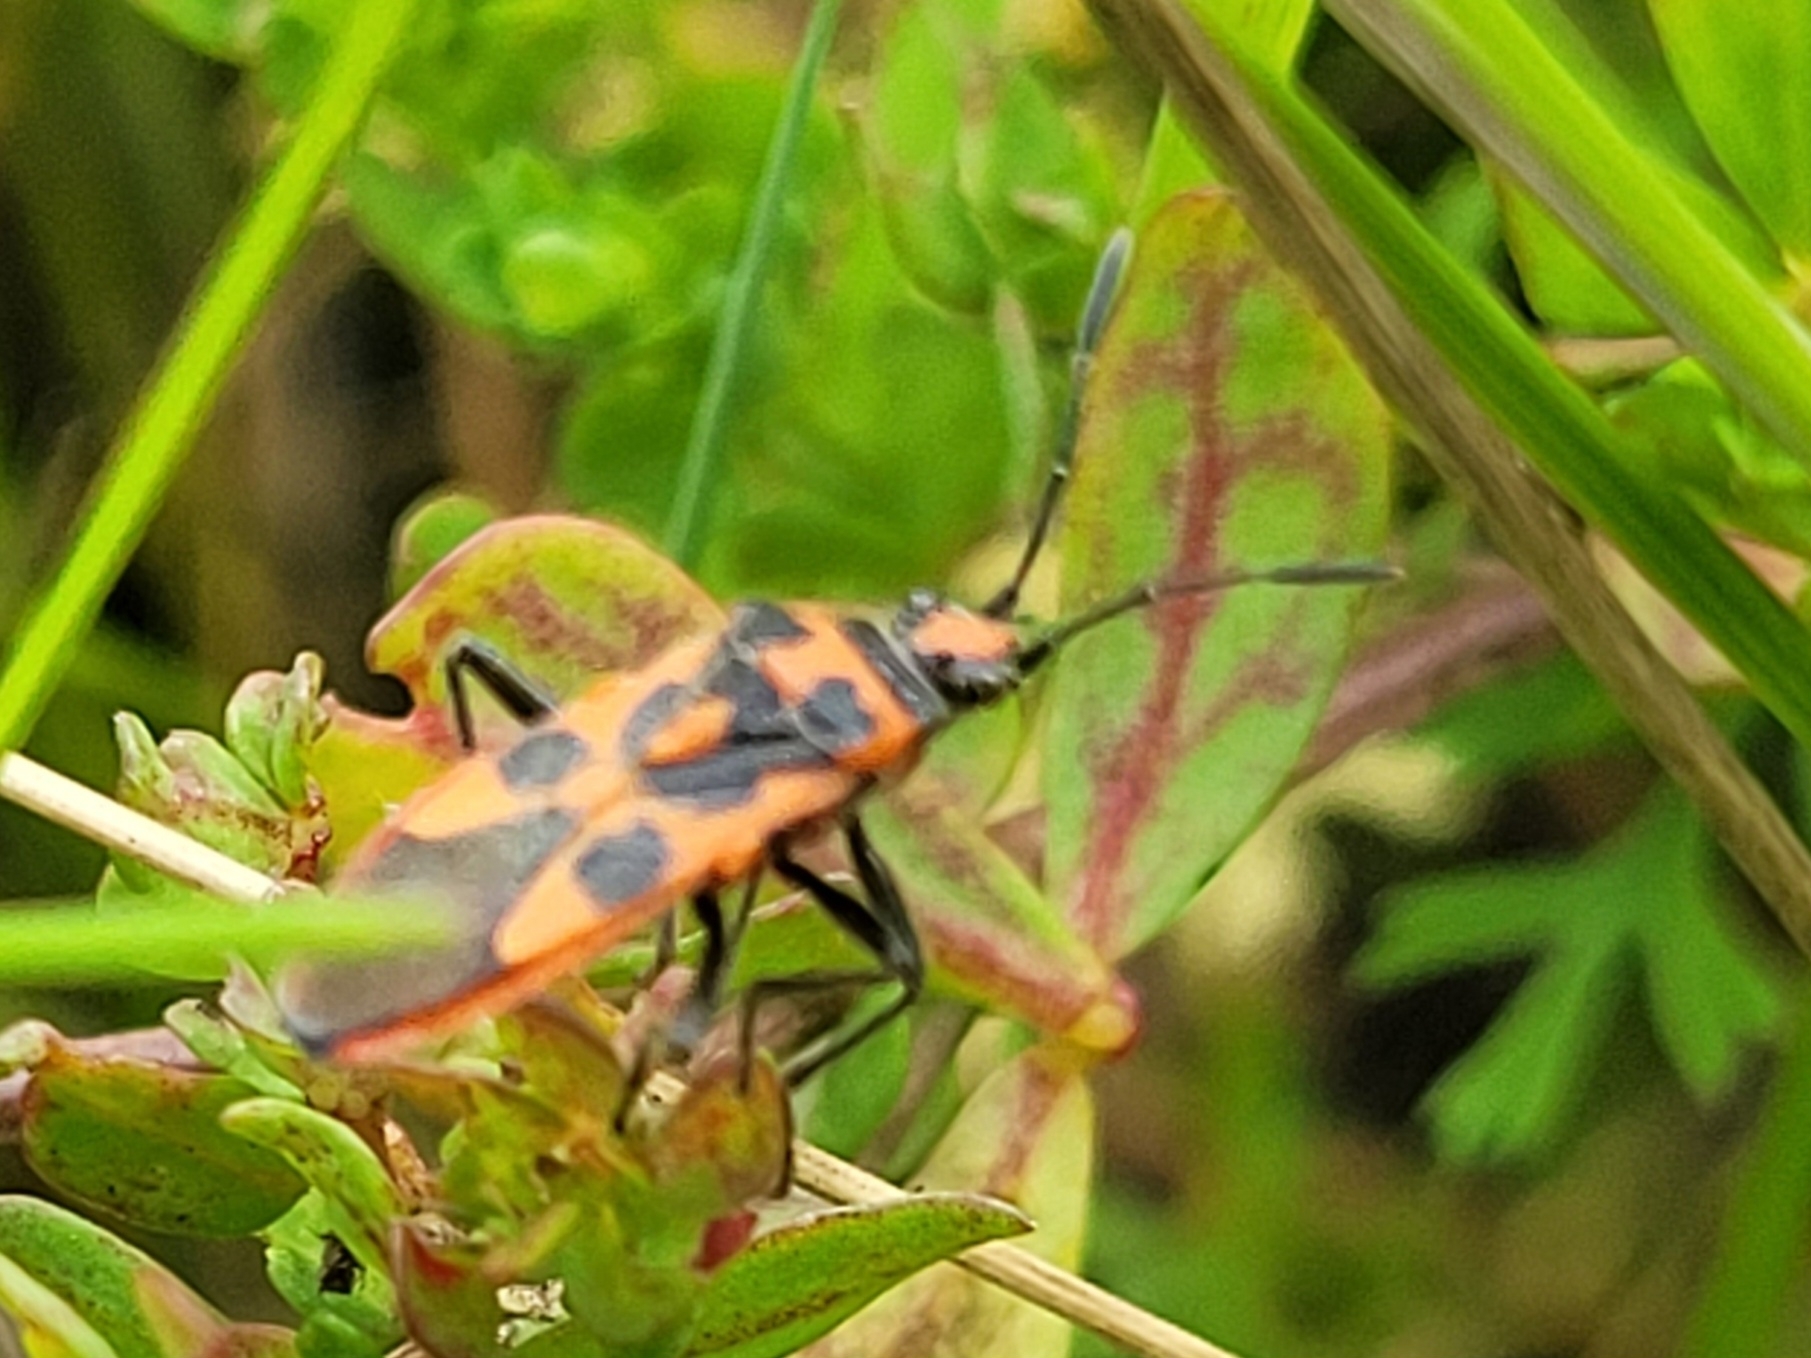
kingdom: Animalia
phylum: Arthropoda
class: Insecta
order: Hemiptera
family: Rhopalidae
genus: Corizus
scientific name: Corizus hyoscyami
